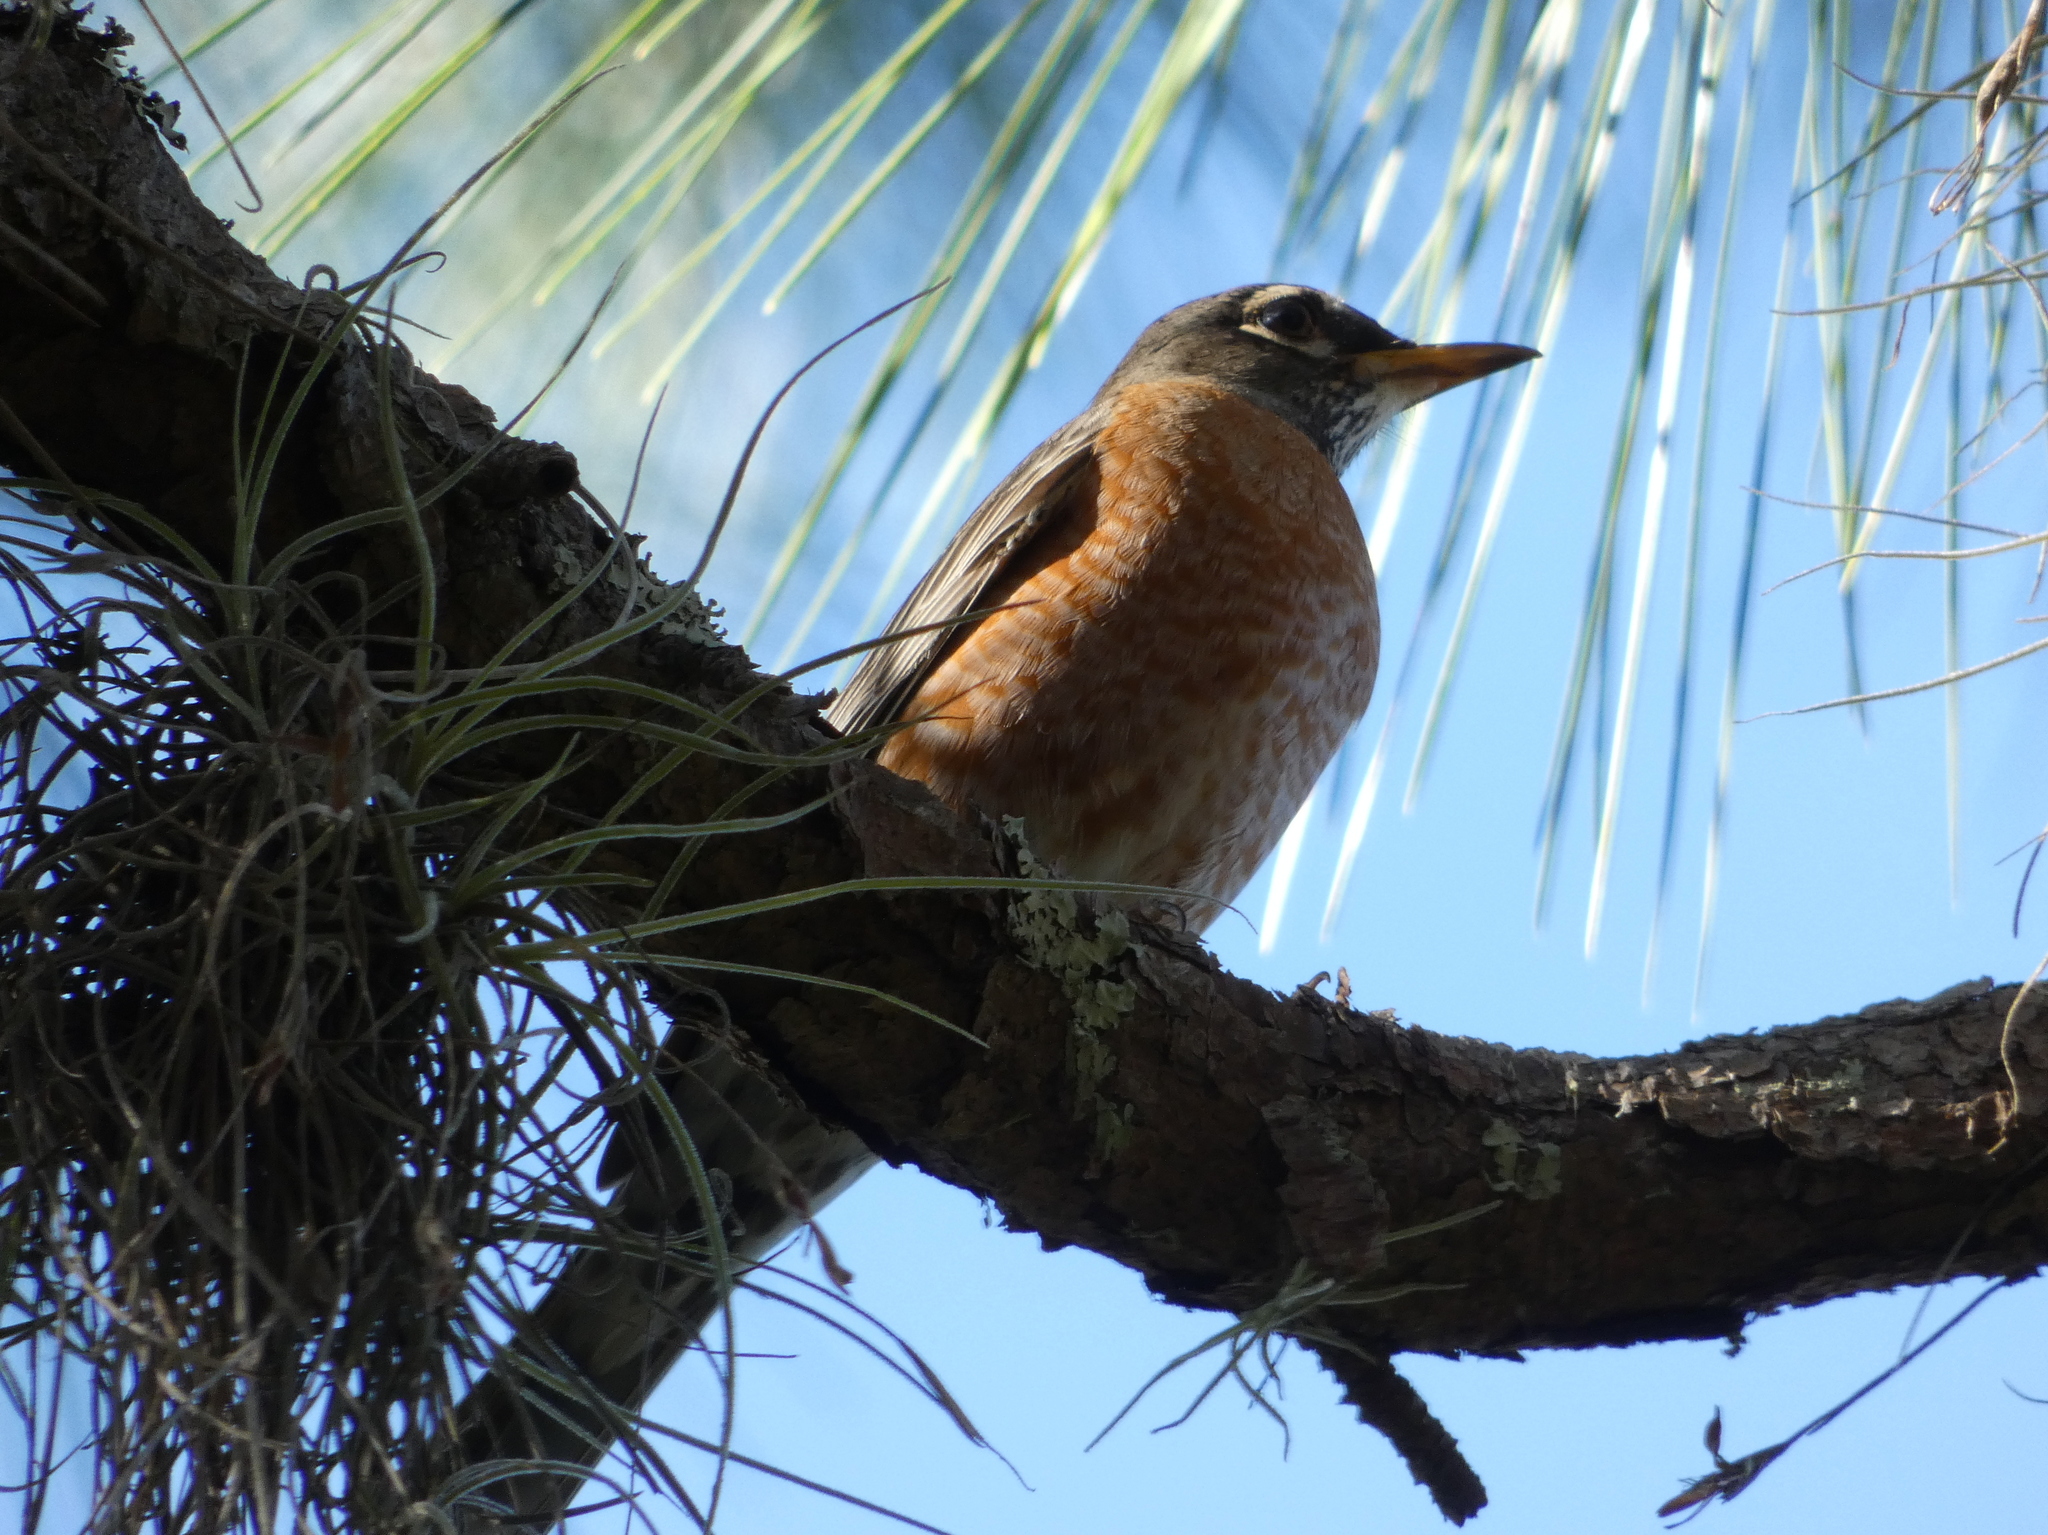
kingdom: Animalia
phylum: Chordata
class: Aves
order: Passeriformes
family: Turdidae
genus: Turdus
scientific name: Turdus migratorius
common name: American robin
